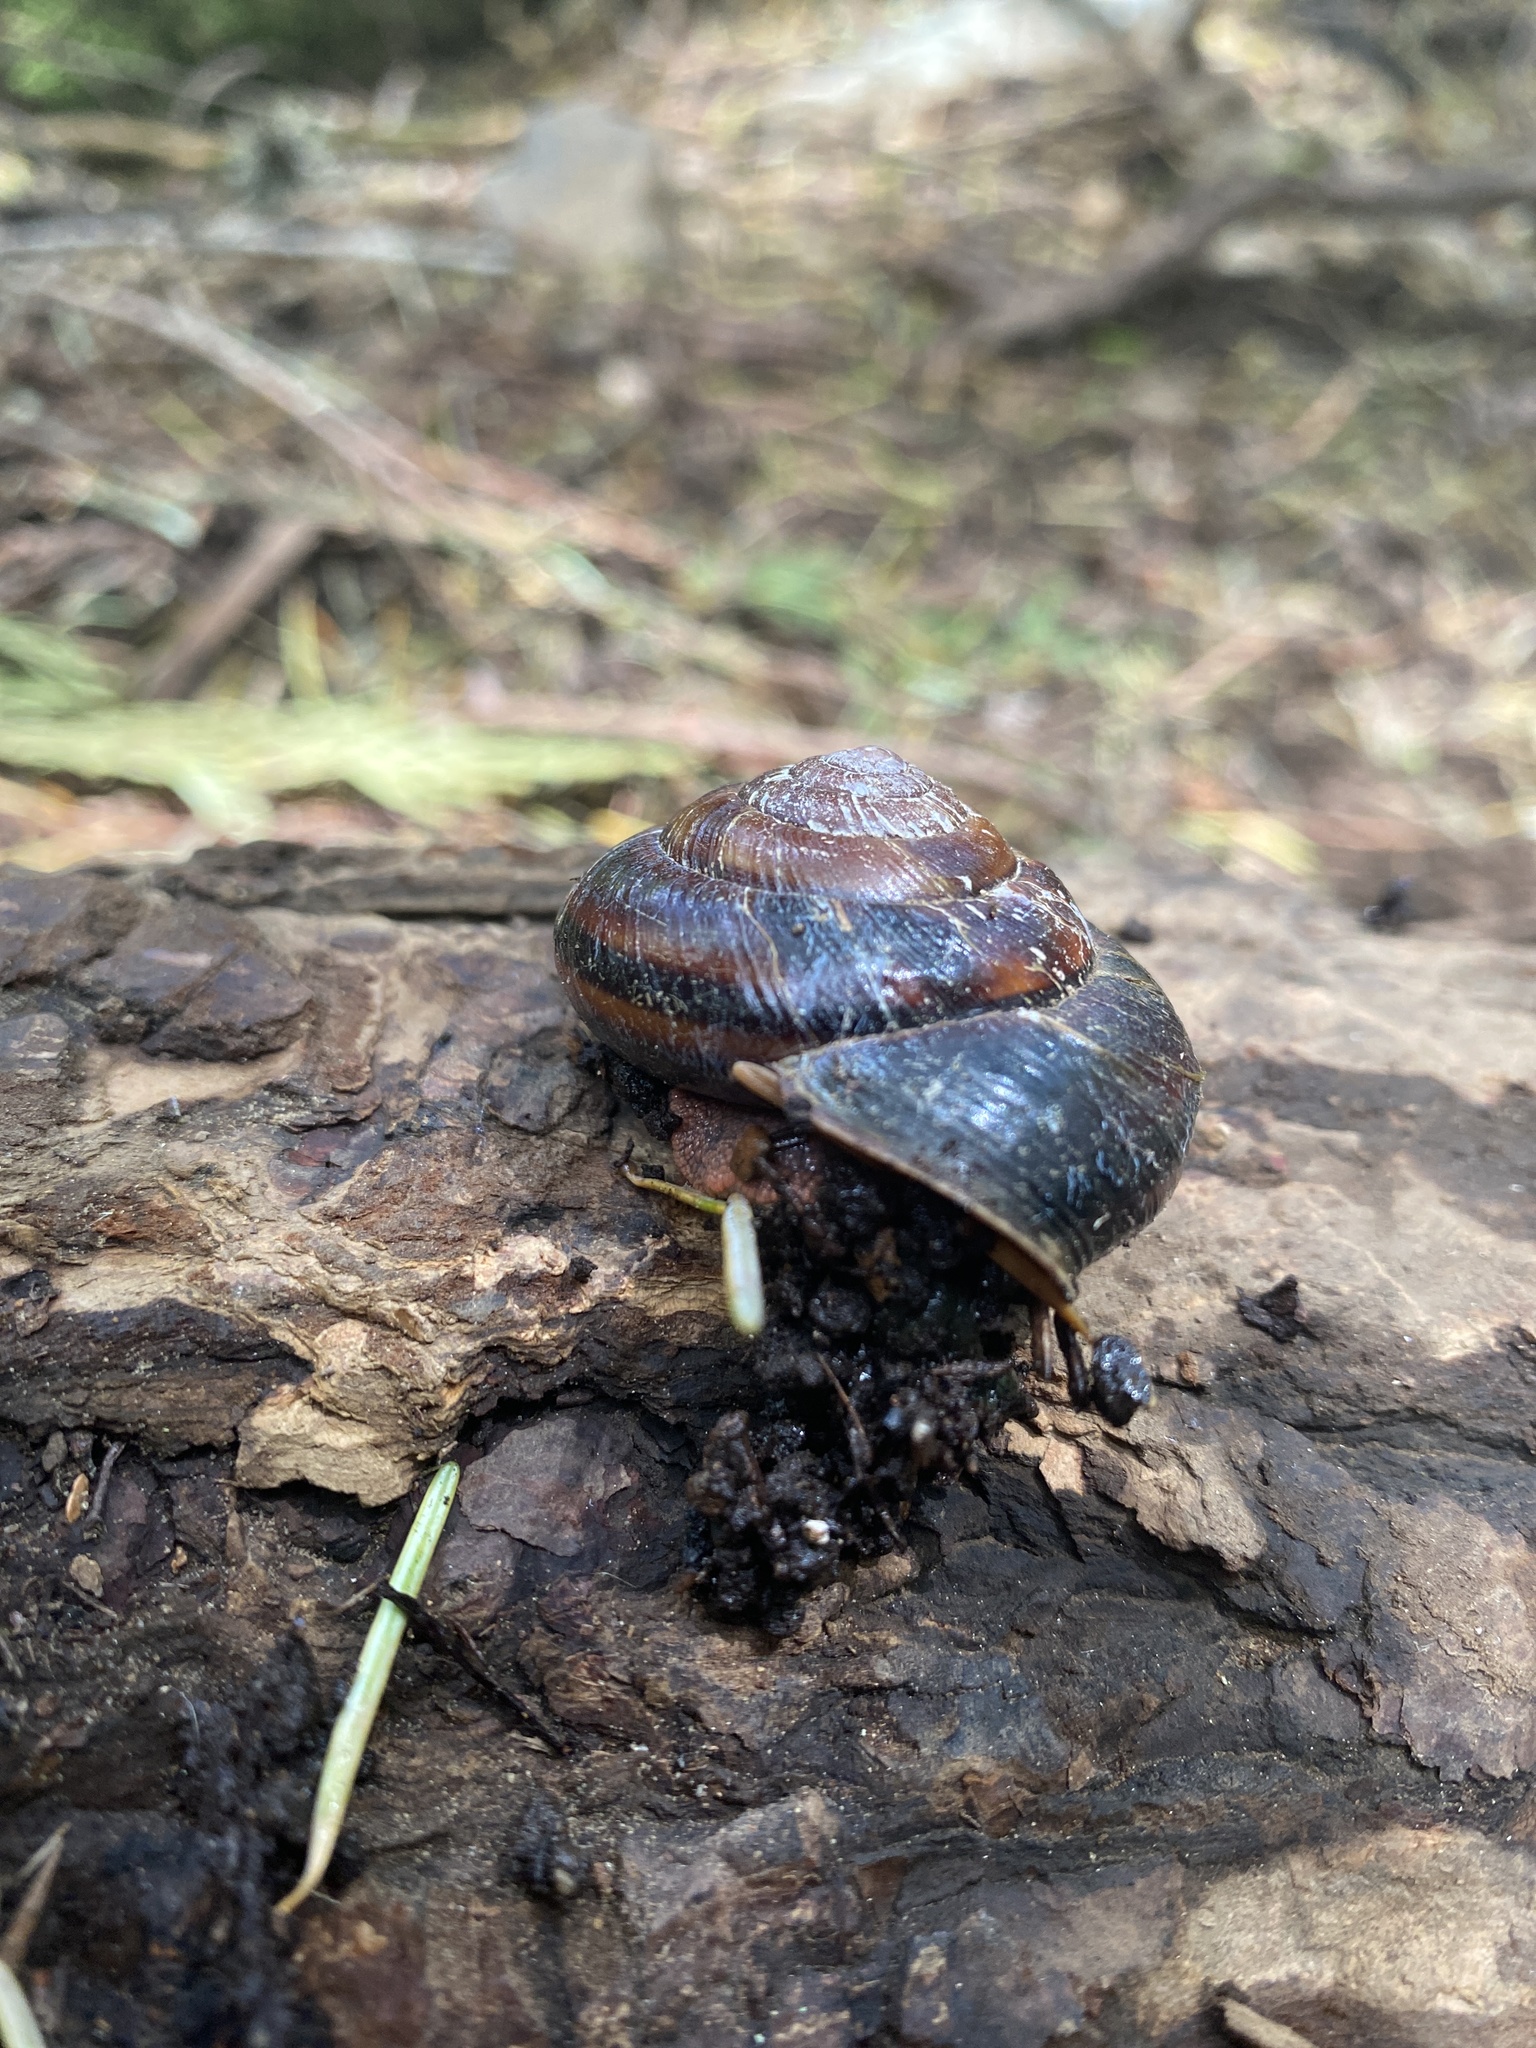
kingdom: Animalia
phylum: Mollusca
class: Gastropoda
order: Stylommatophora
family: Xanthonychidae
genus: Monadenia
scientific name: Monadenia fidelis
